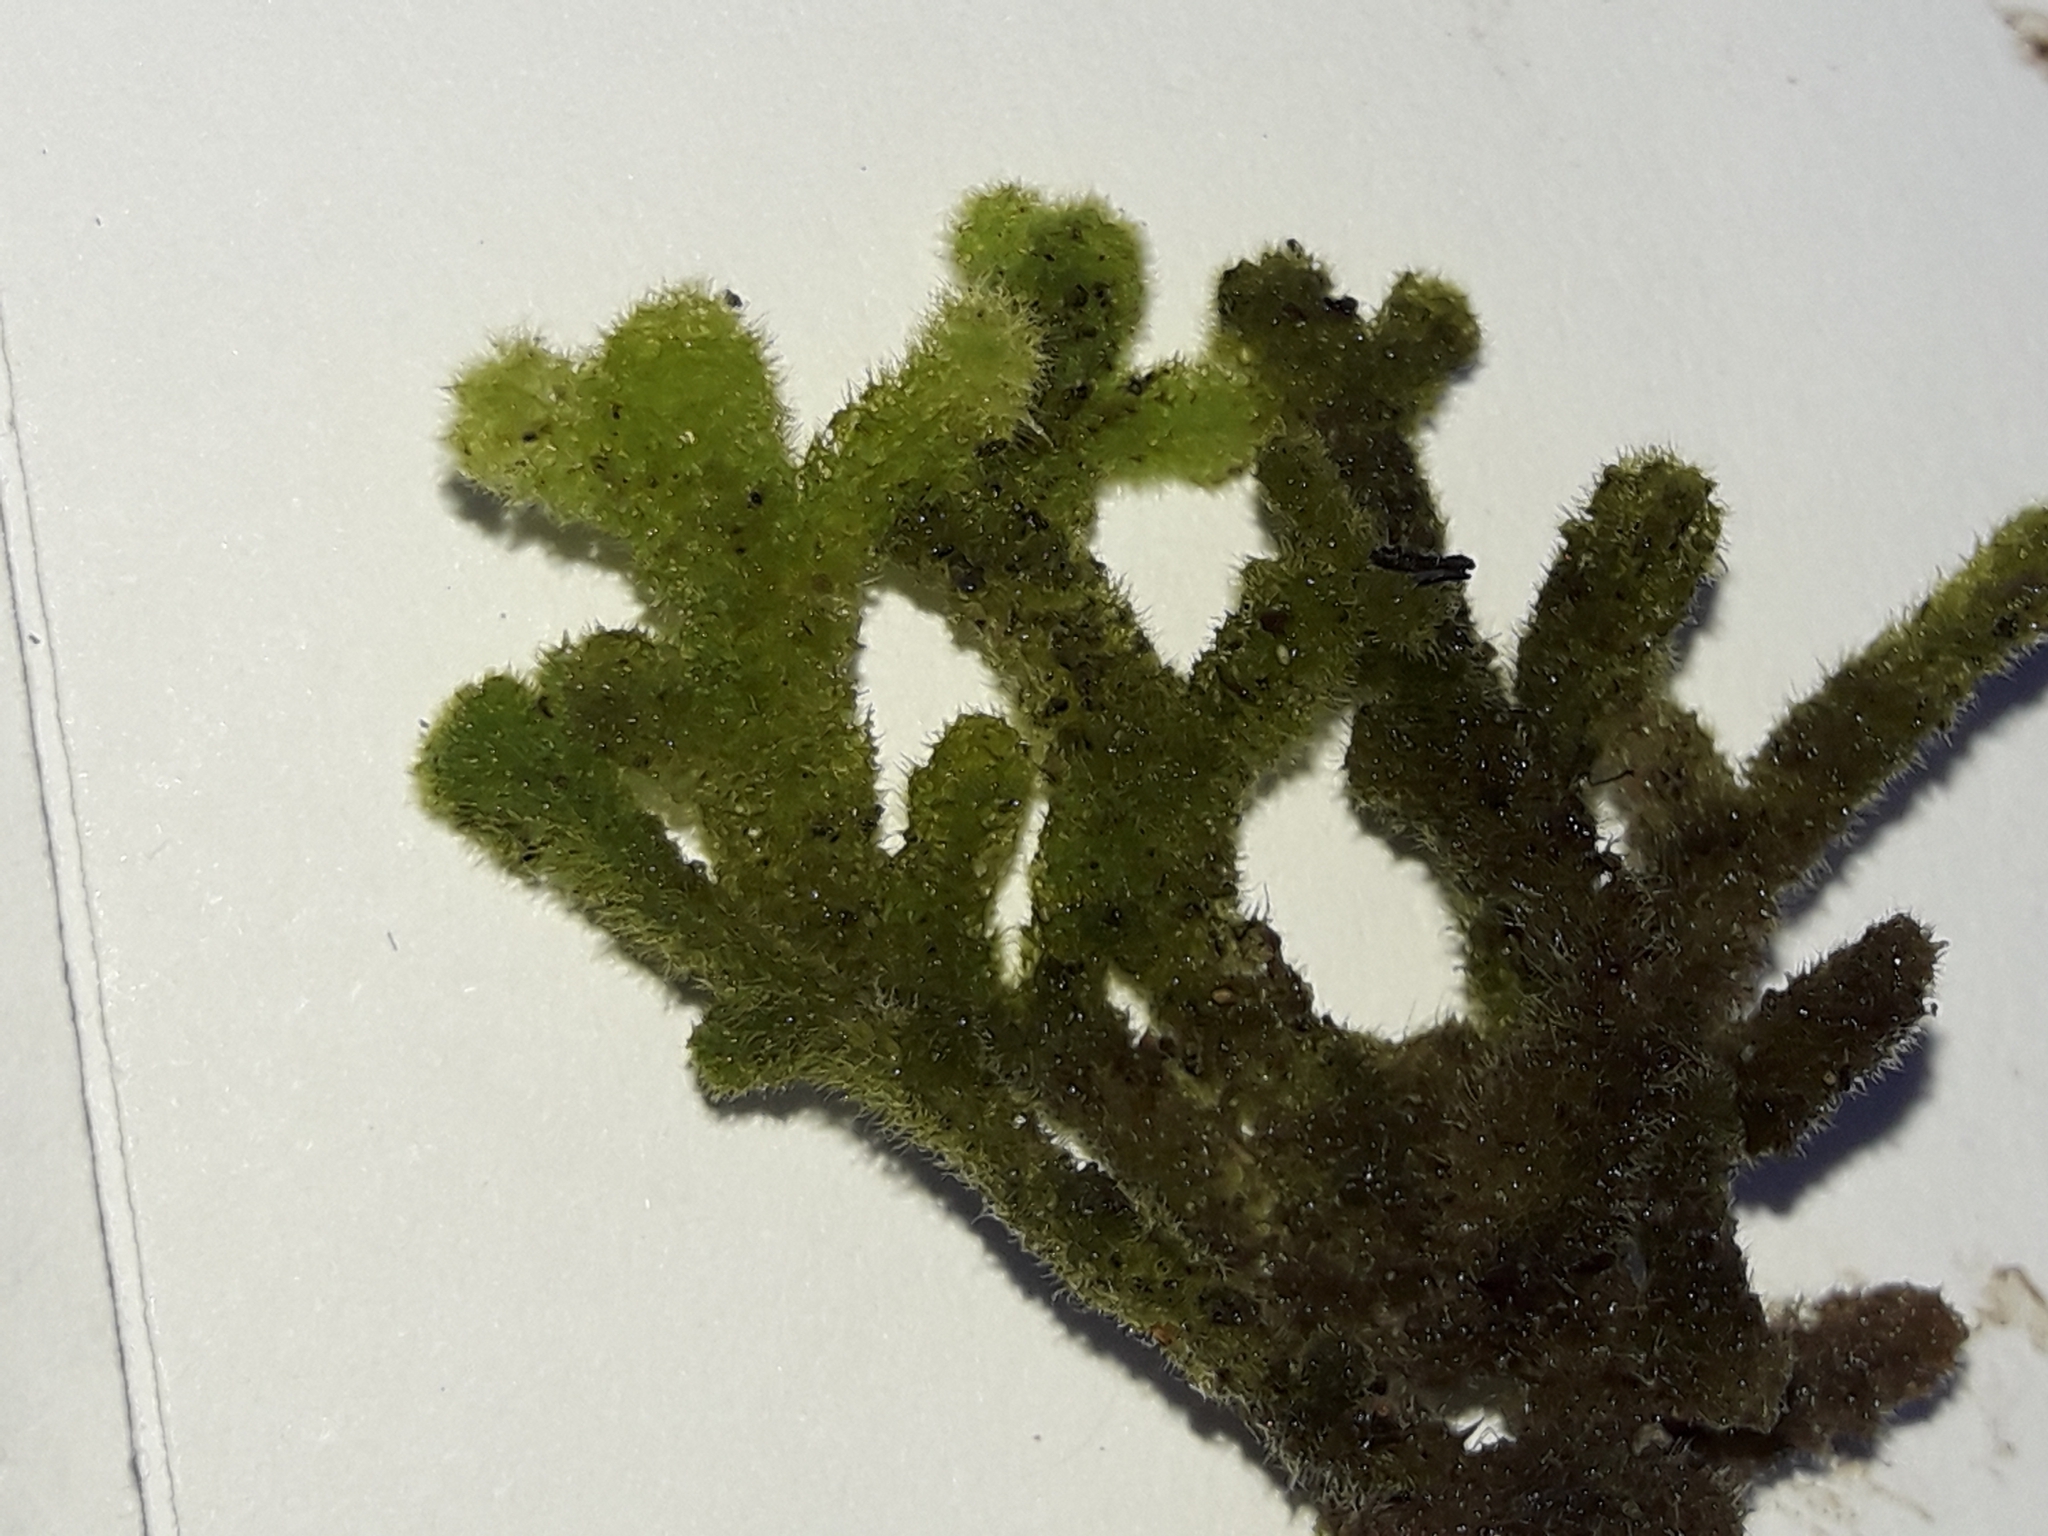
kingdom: Plantae
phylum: Marchantiophyta
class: Jungermanniopsida
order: Jungermanniales
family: Trichocoleaceae
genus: Leiomitra
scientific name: Leiomitra lanata
